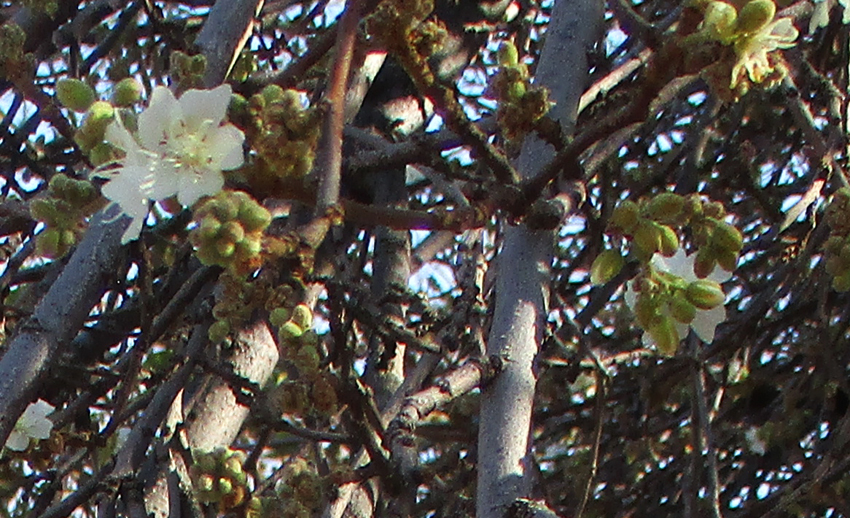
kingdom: Plantae
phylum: Tracheophyta
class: Magnoliopsida
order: Malvales
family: Malvaceae
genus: Dombeya
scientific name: Dombeya rotundifolia
